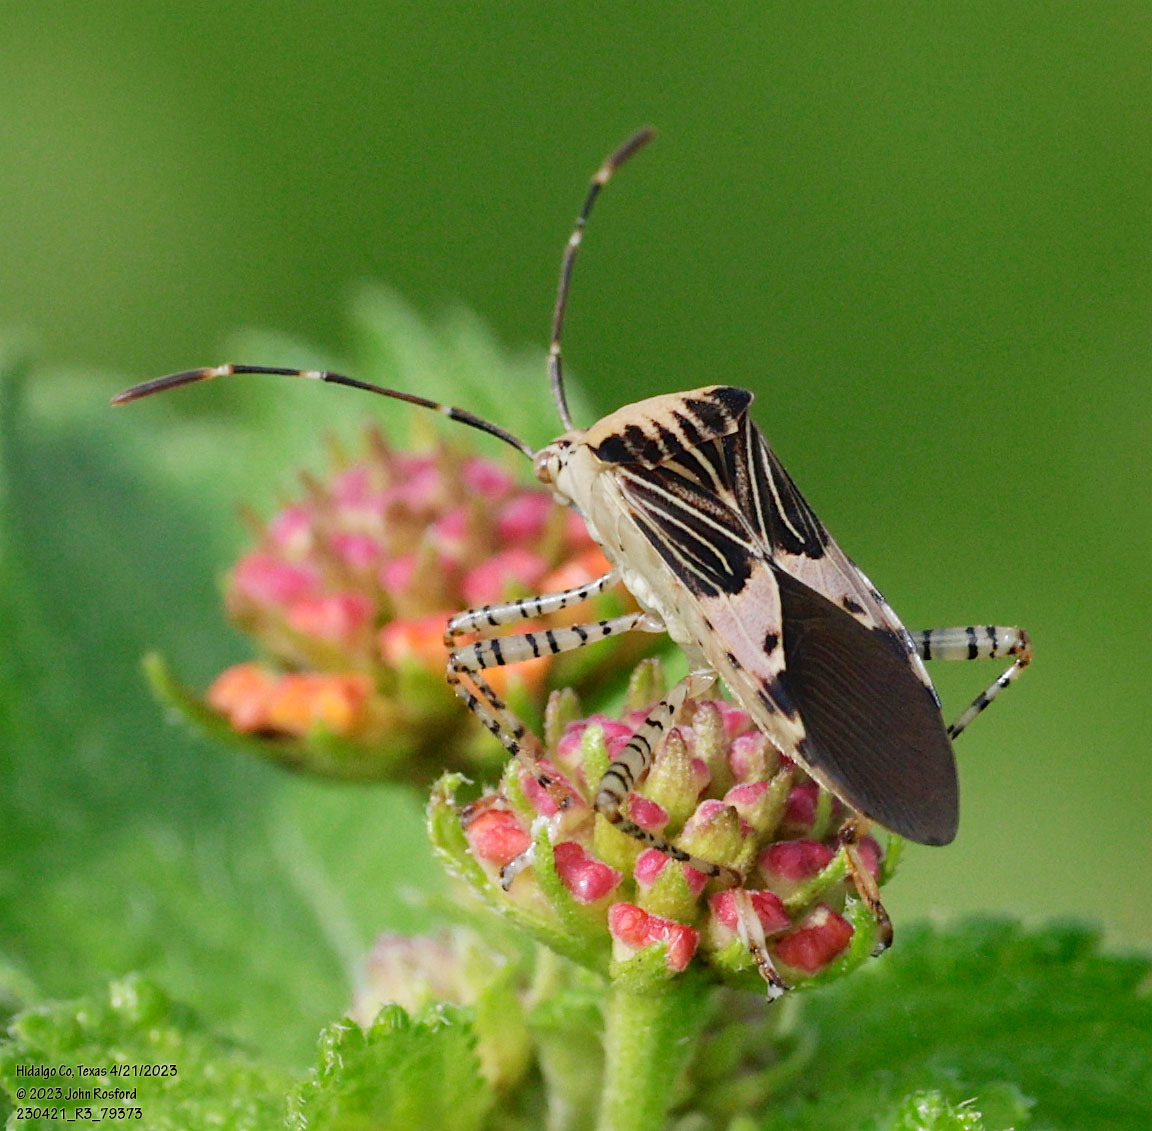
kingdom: Animalia
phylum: Arthropoda
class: Insecta
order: Hemiptera
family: Coreidae
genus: Hypselonotus
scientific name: Hypselonotus punctiventris
